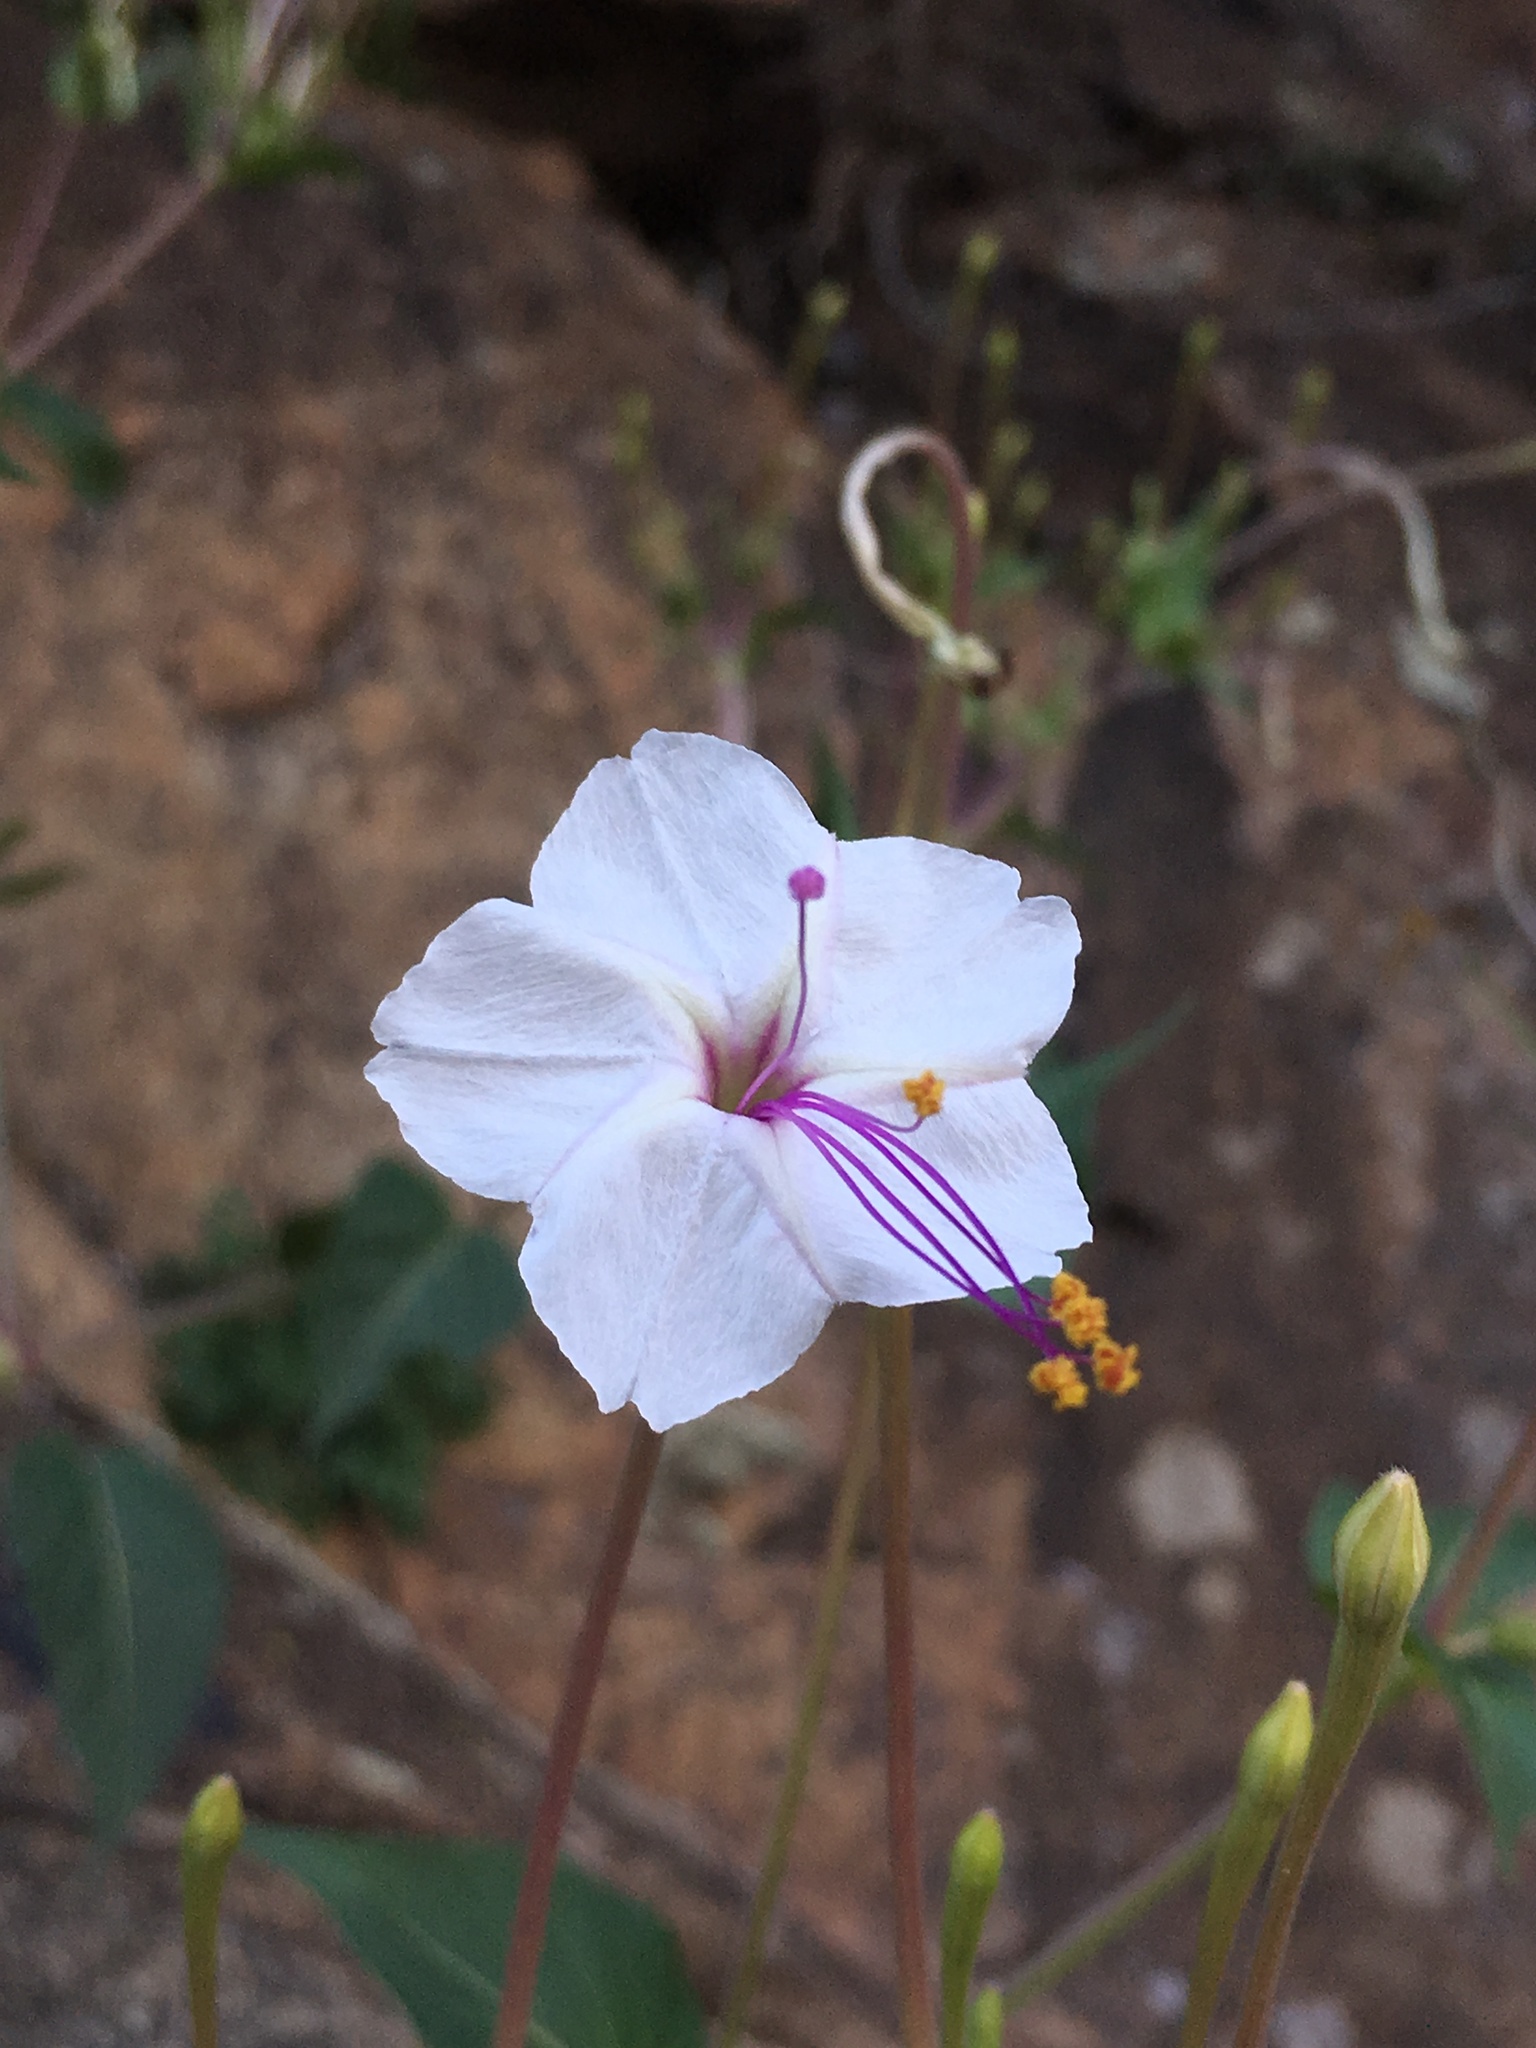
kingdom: Plantae
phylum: Tracheophyta
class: Magnoliopsida
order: Caryophyllales
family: Nyctaginaceae
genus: Mirabilis
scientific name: Mirabilis longiflora
